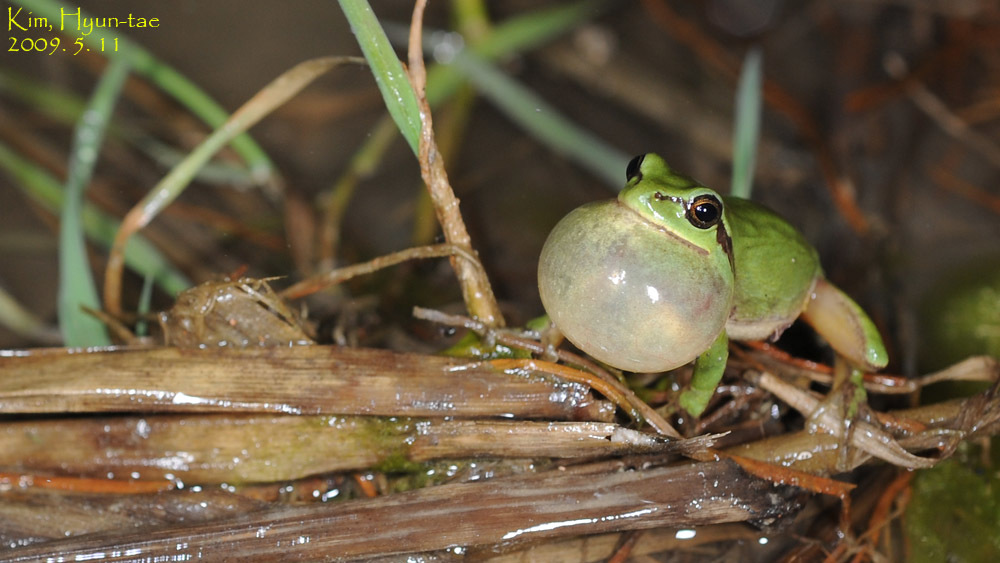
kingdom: Animalia
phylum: Chordata
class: Amphibia
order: Anura
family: Hylidae
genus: Dryophytes
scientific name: Dryophytes immaculatus
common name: North china treefrog
